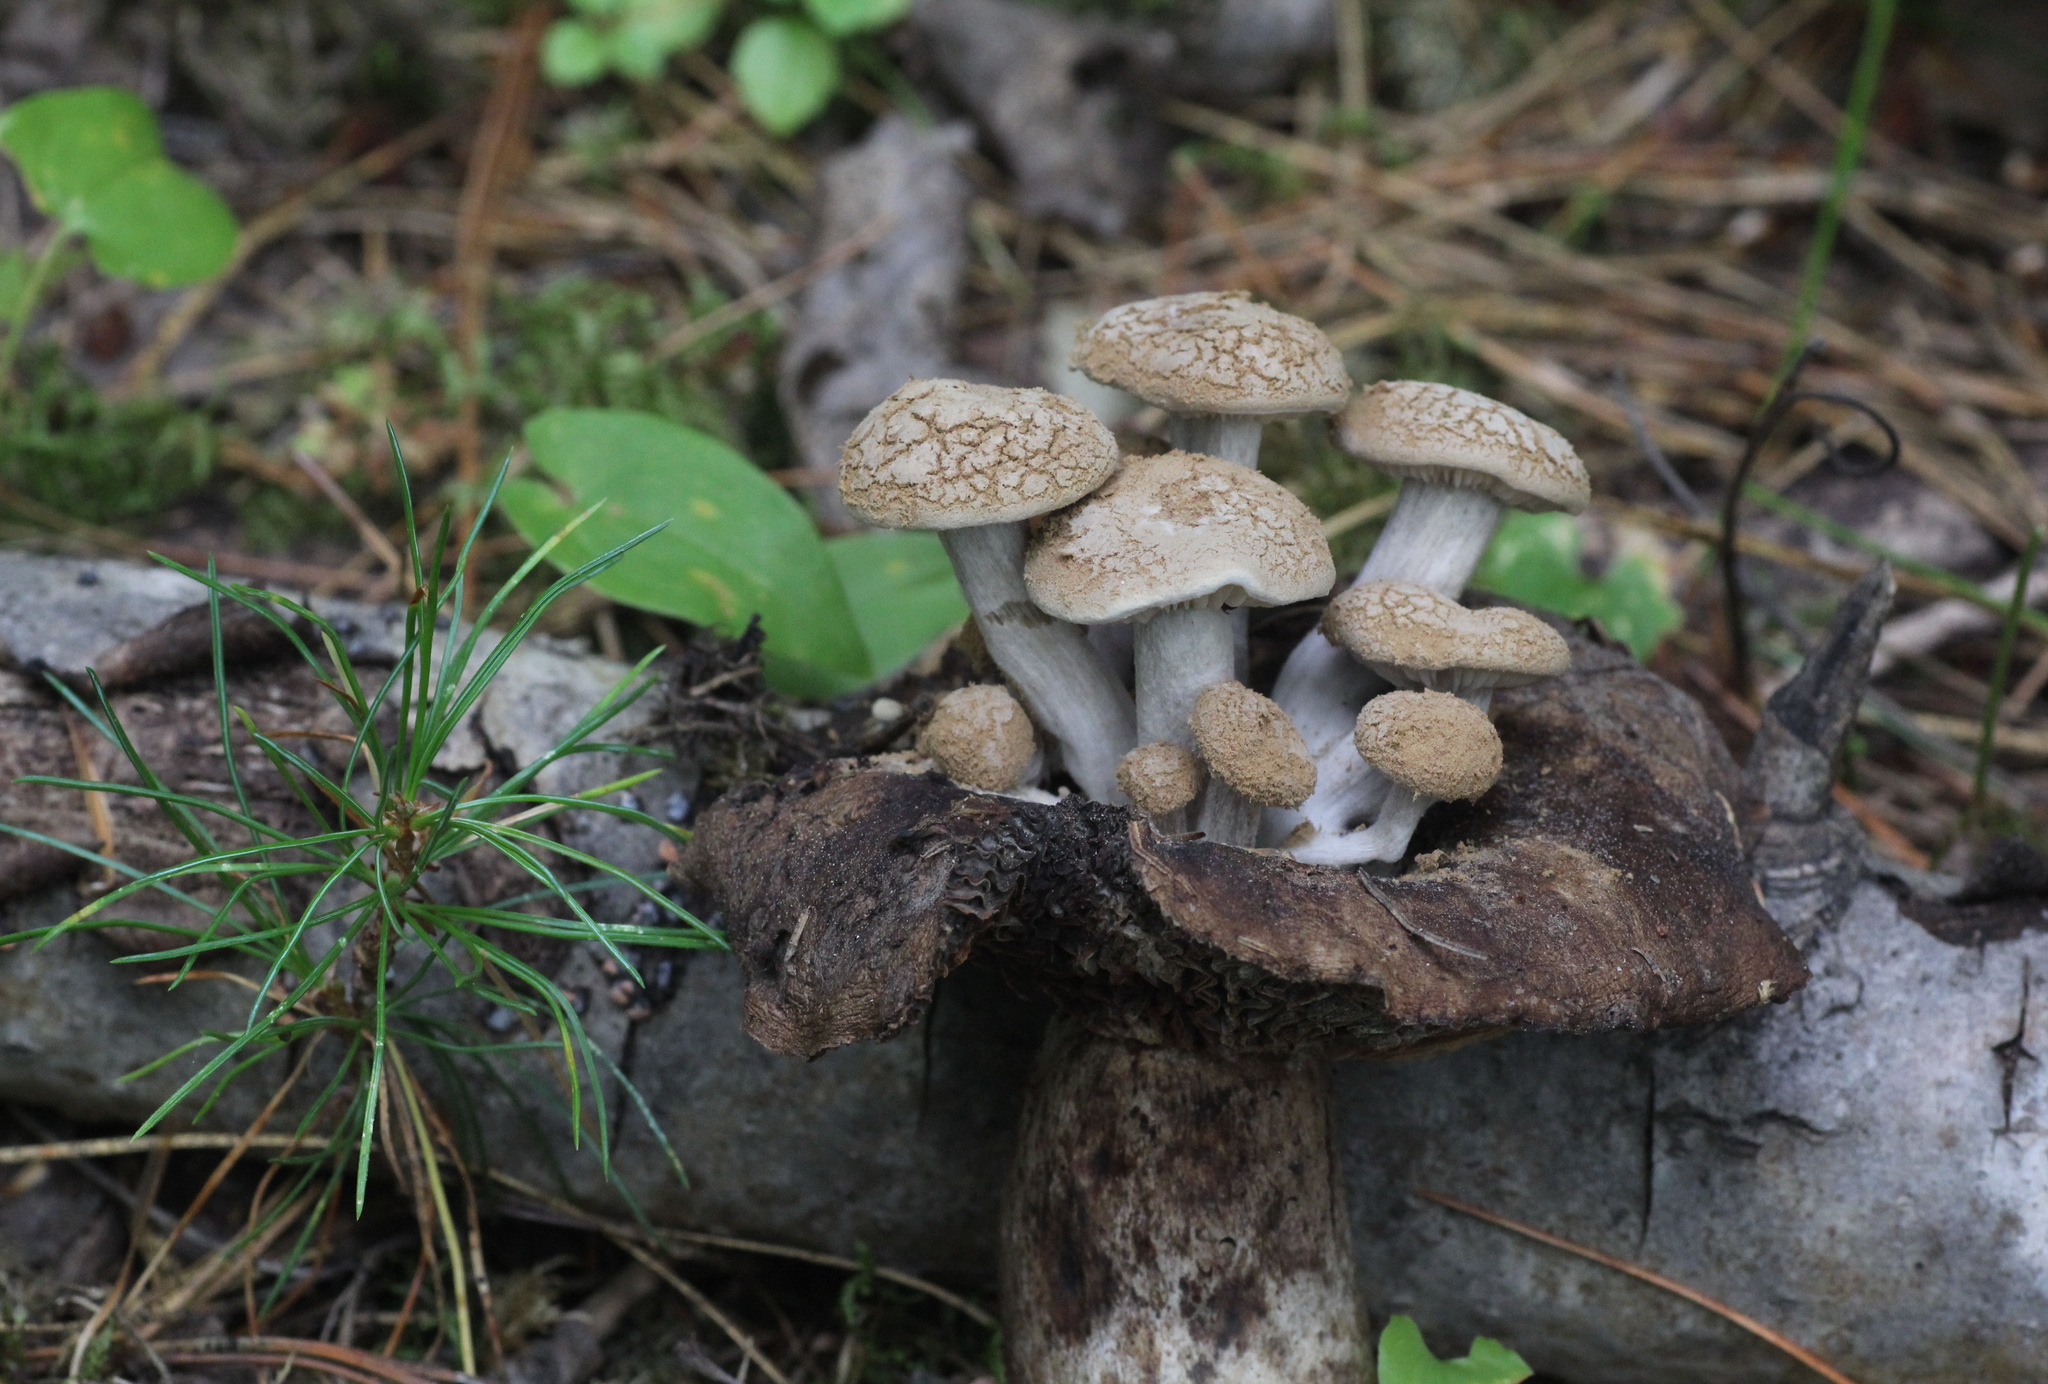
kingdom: Fungi
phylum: Basidiomycota
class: Agaricomycetes
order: Agaricales
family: Lyophyllaceae
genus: Asterophora
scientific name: Asterophora lycoperdoides
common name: Pick-a-back toadstool
